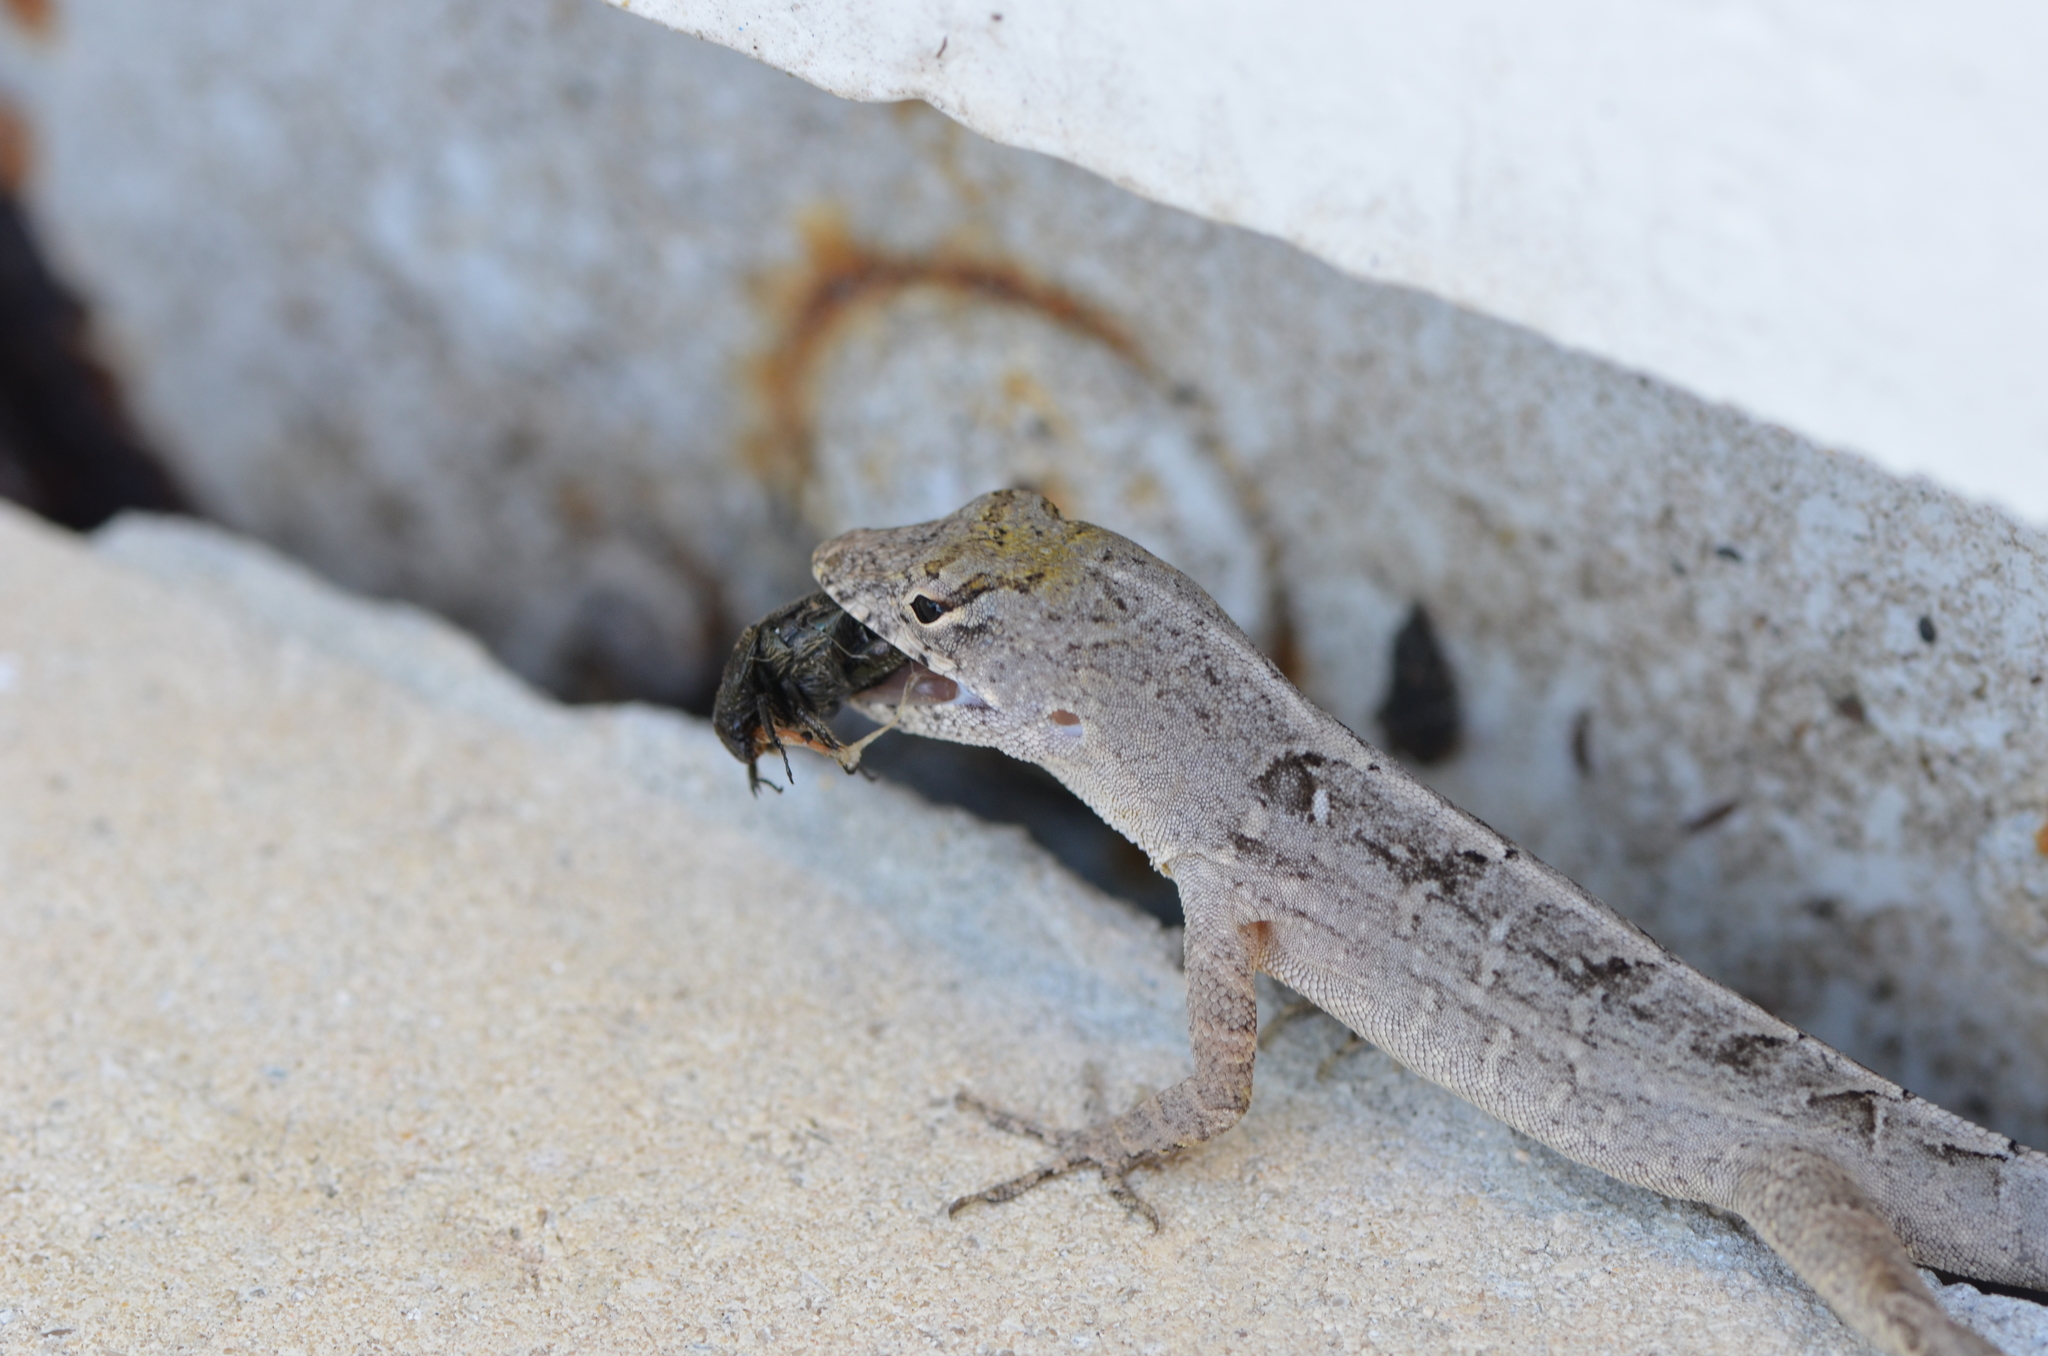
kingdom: Animalia
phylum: Chordata
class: Squamata
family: Dactyloidae
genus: Anolis
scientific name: Anolis sagrei
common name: Brown anole
